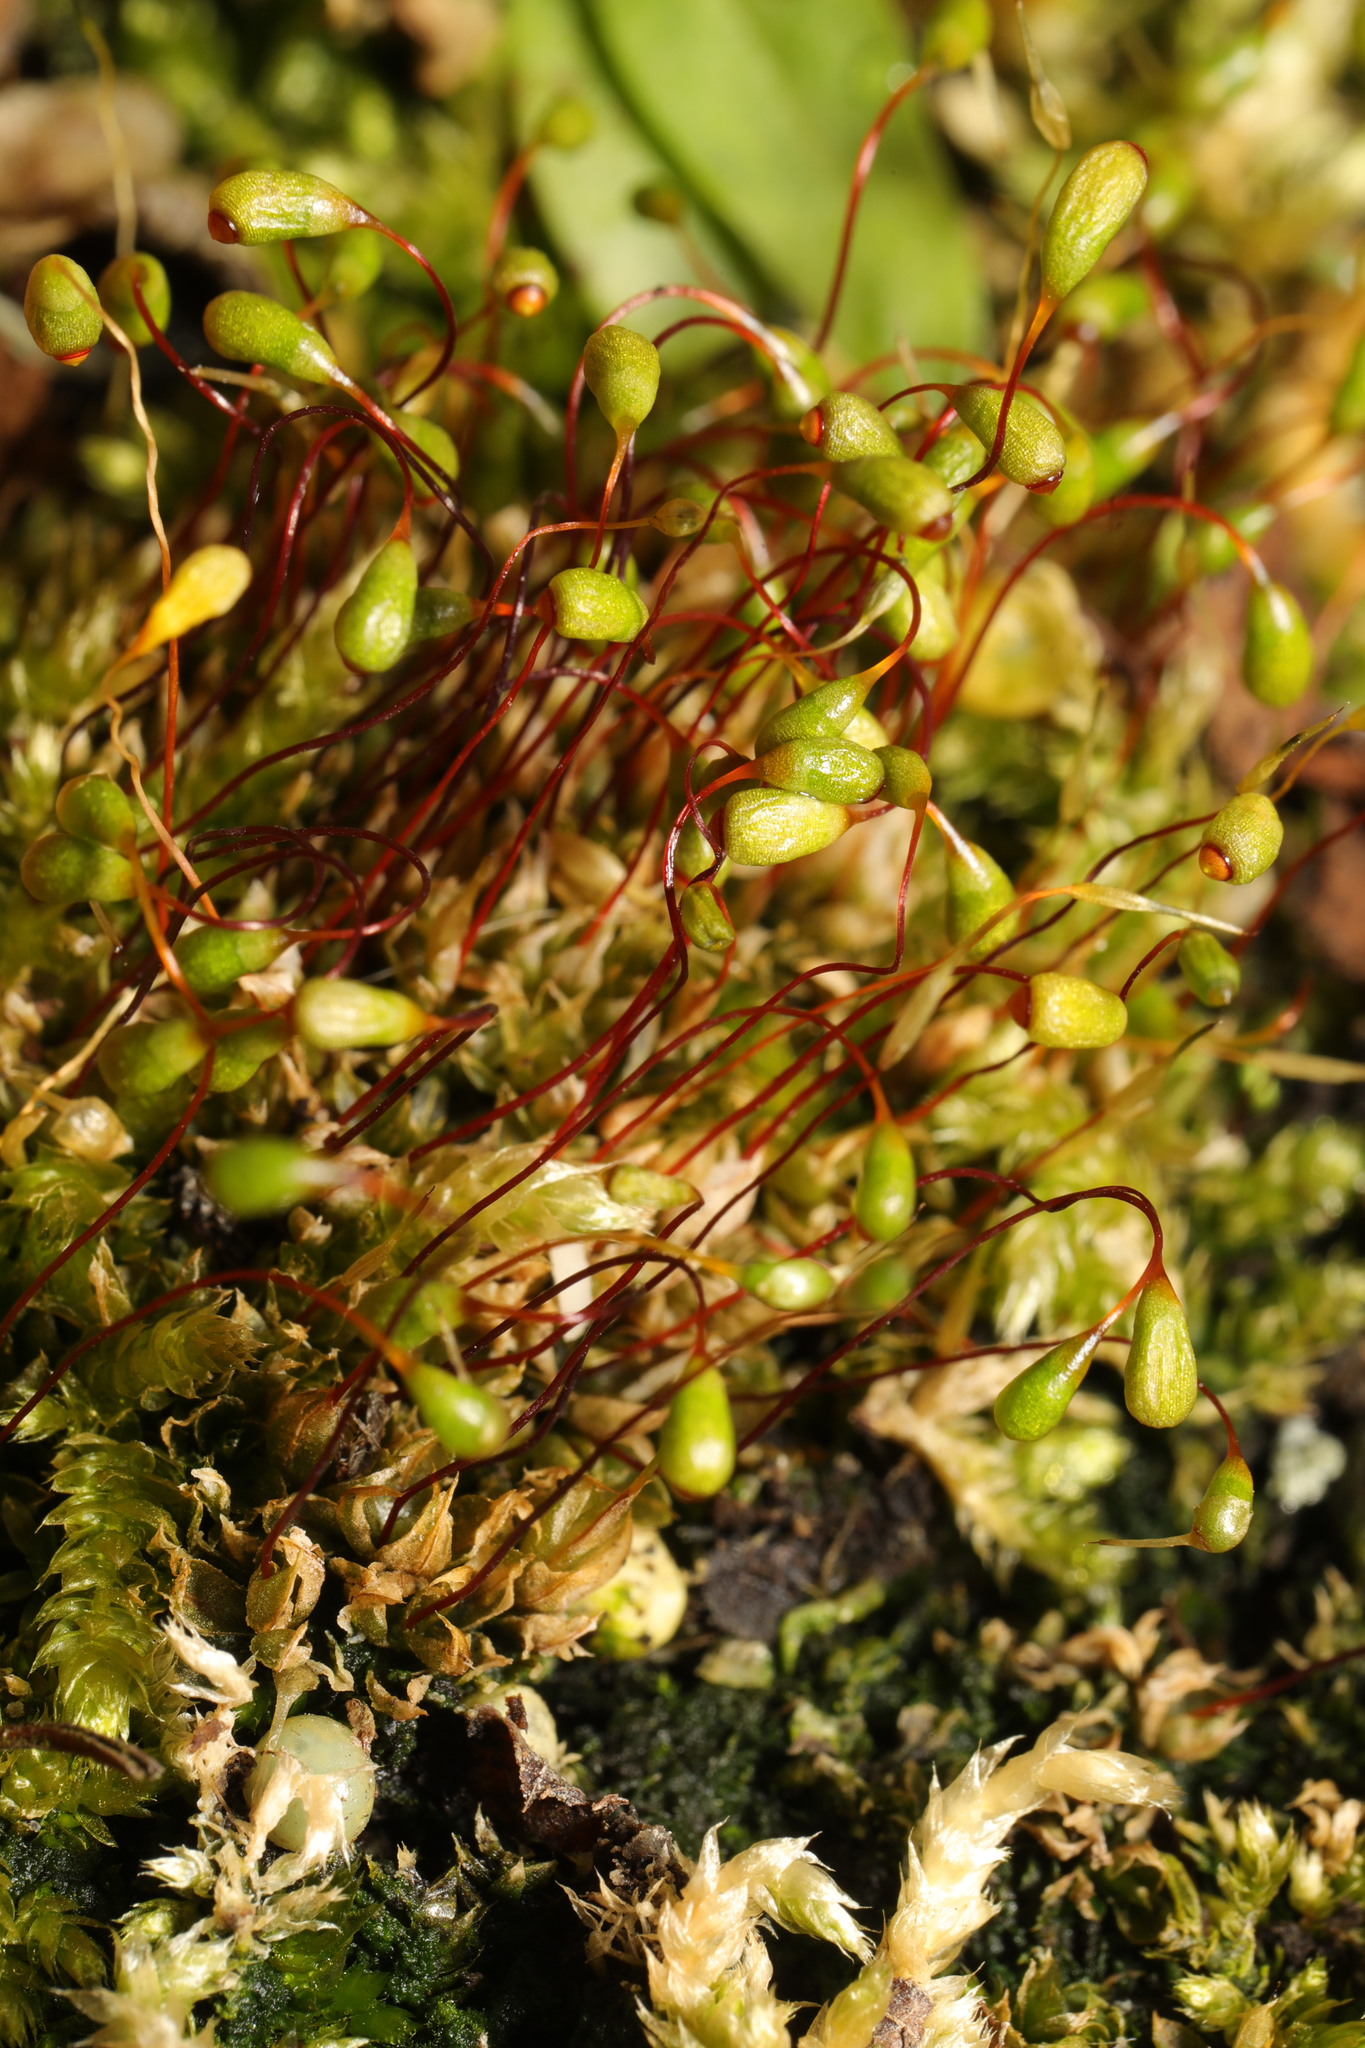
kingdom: Plantae
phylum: Bryophyta
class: Bryopsida
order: Funariales
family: Funariaceae
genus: Funaria
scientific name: Funaria hygrometrica
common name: Common cord moss
